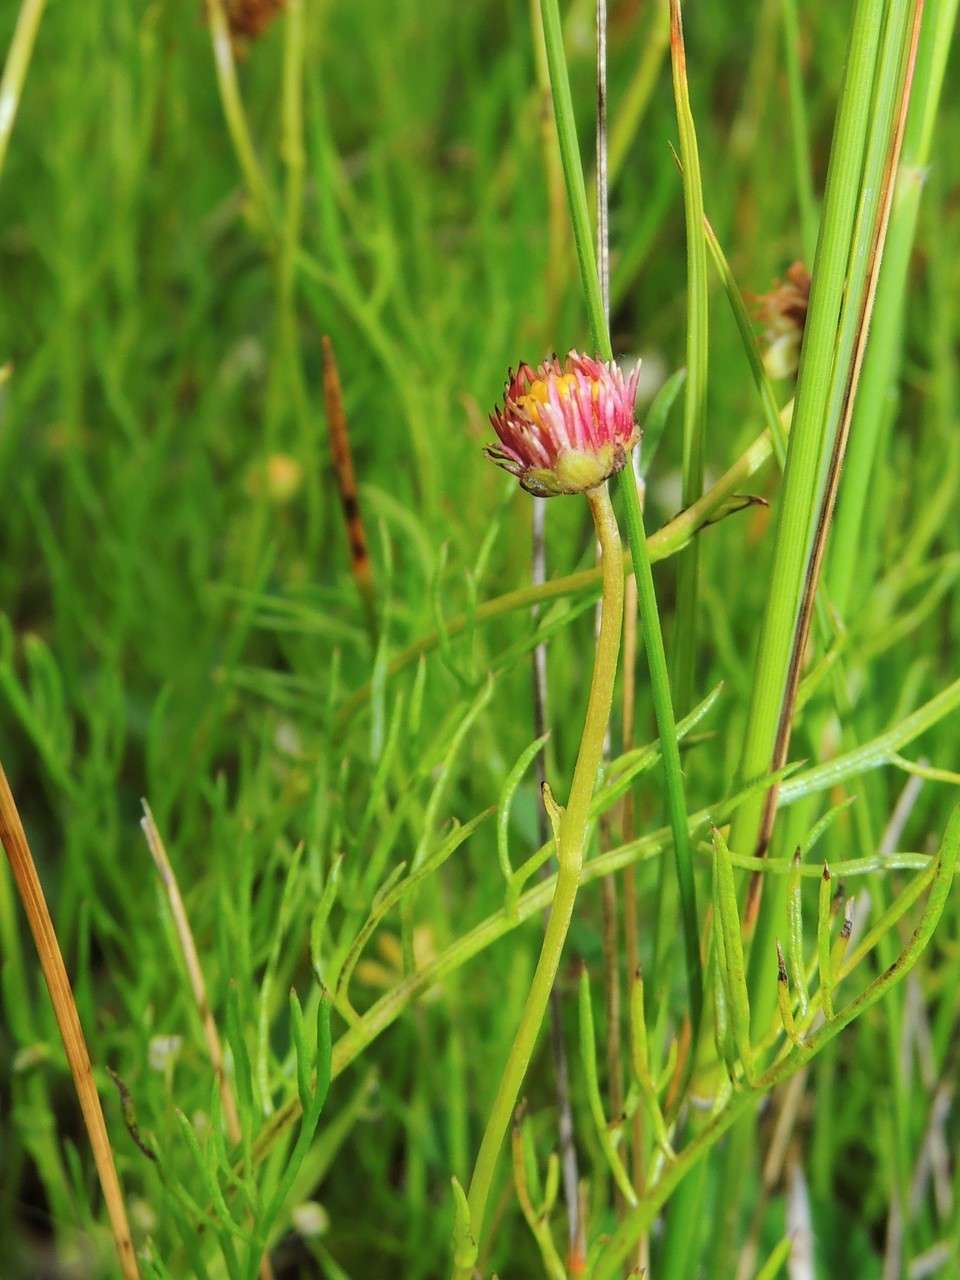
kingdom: Plantae
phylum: Tracheophyta
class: Magnoliopsida
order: Asterales
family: Asteraceae
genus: Calotis
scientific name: Calotis anthemoides
